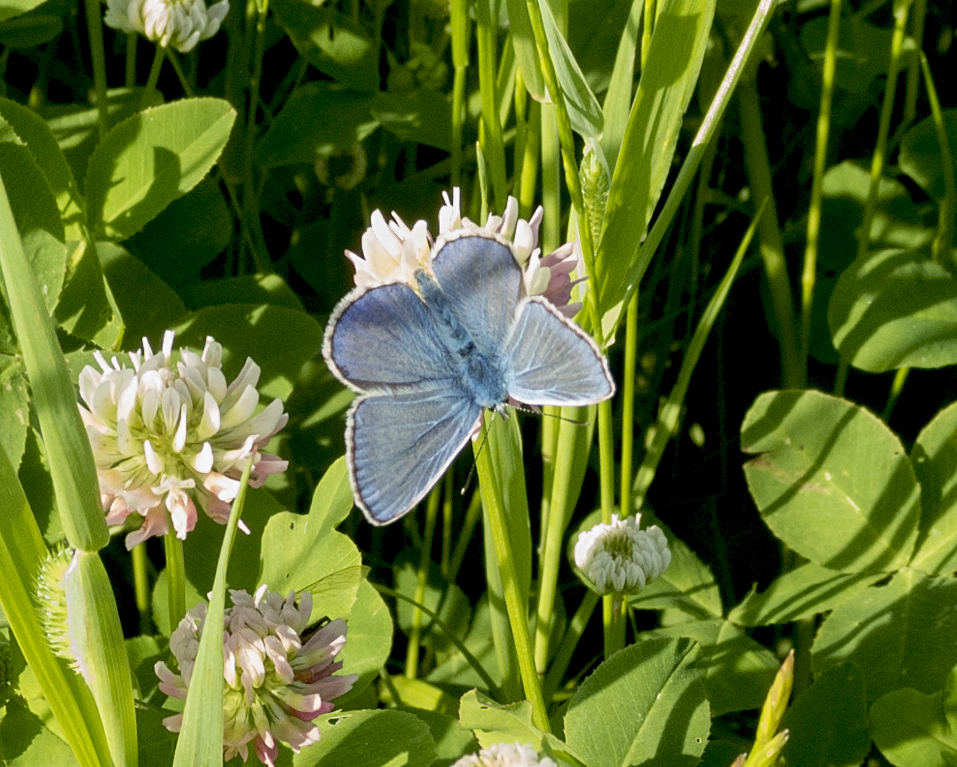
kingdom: Animalia
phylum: Arthropoda
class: Insecta
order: Lepidoptera
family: Lycaenidae
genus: Polyommatus
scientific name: Polyommatus icarus
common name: Common blue
